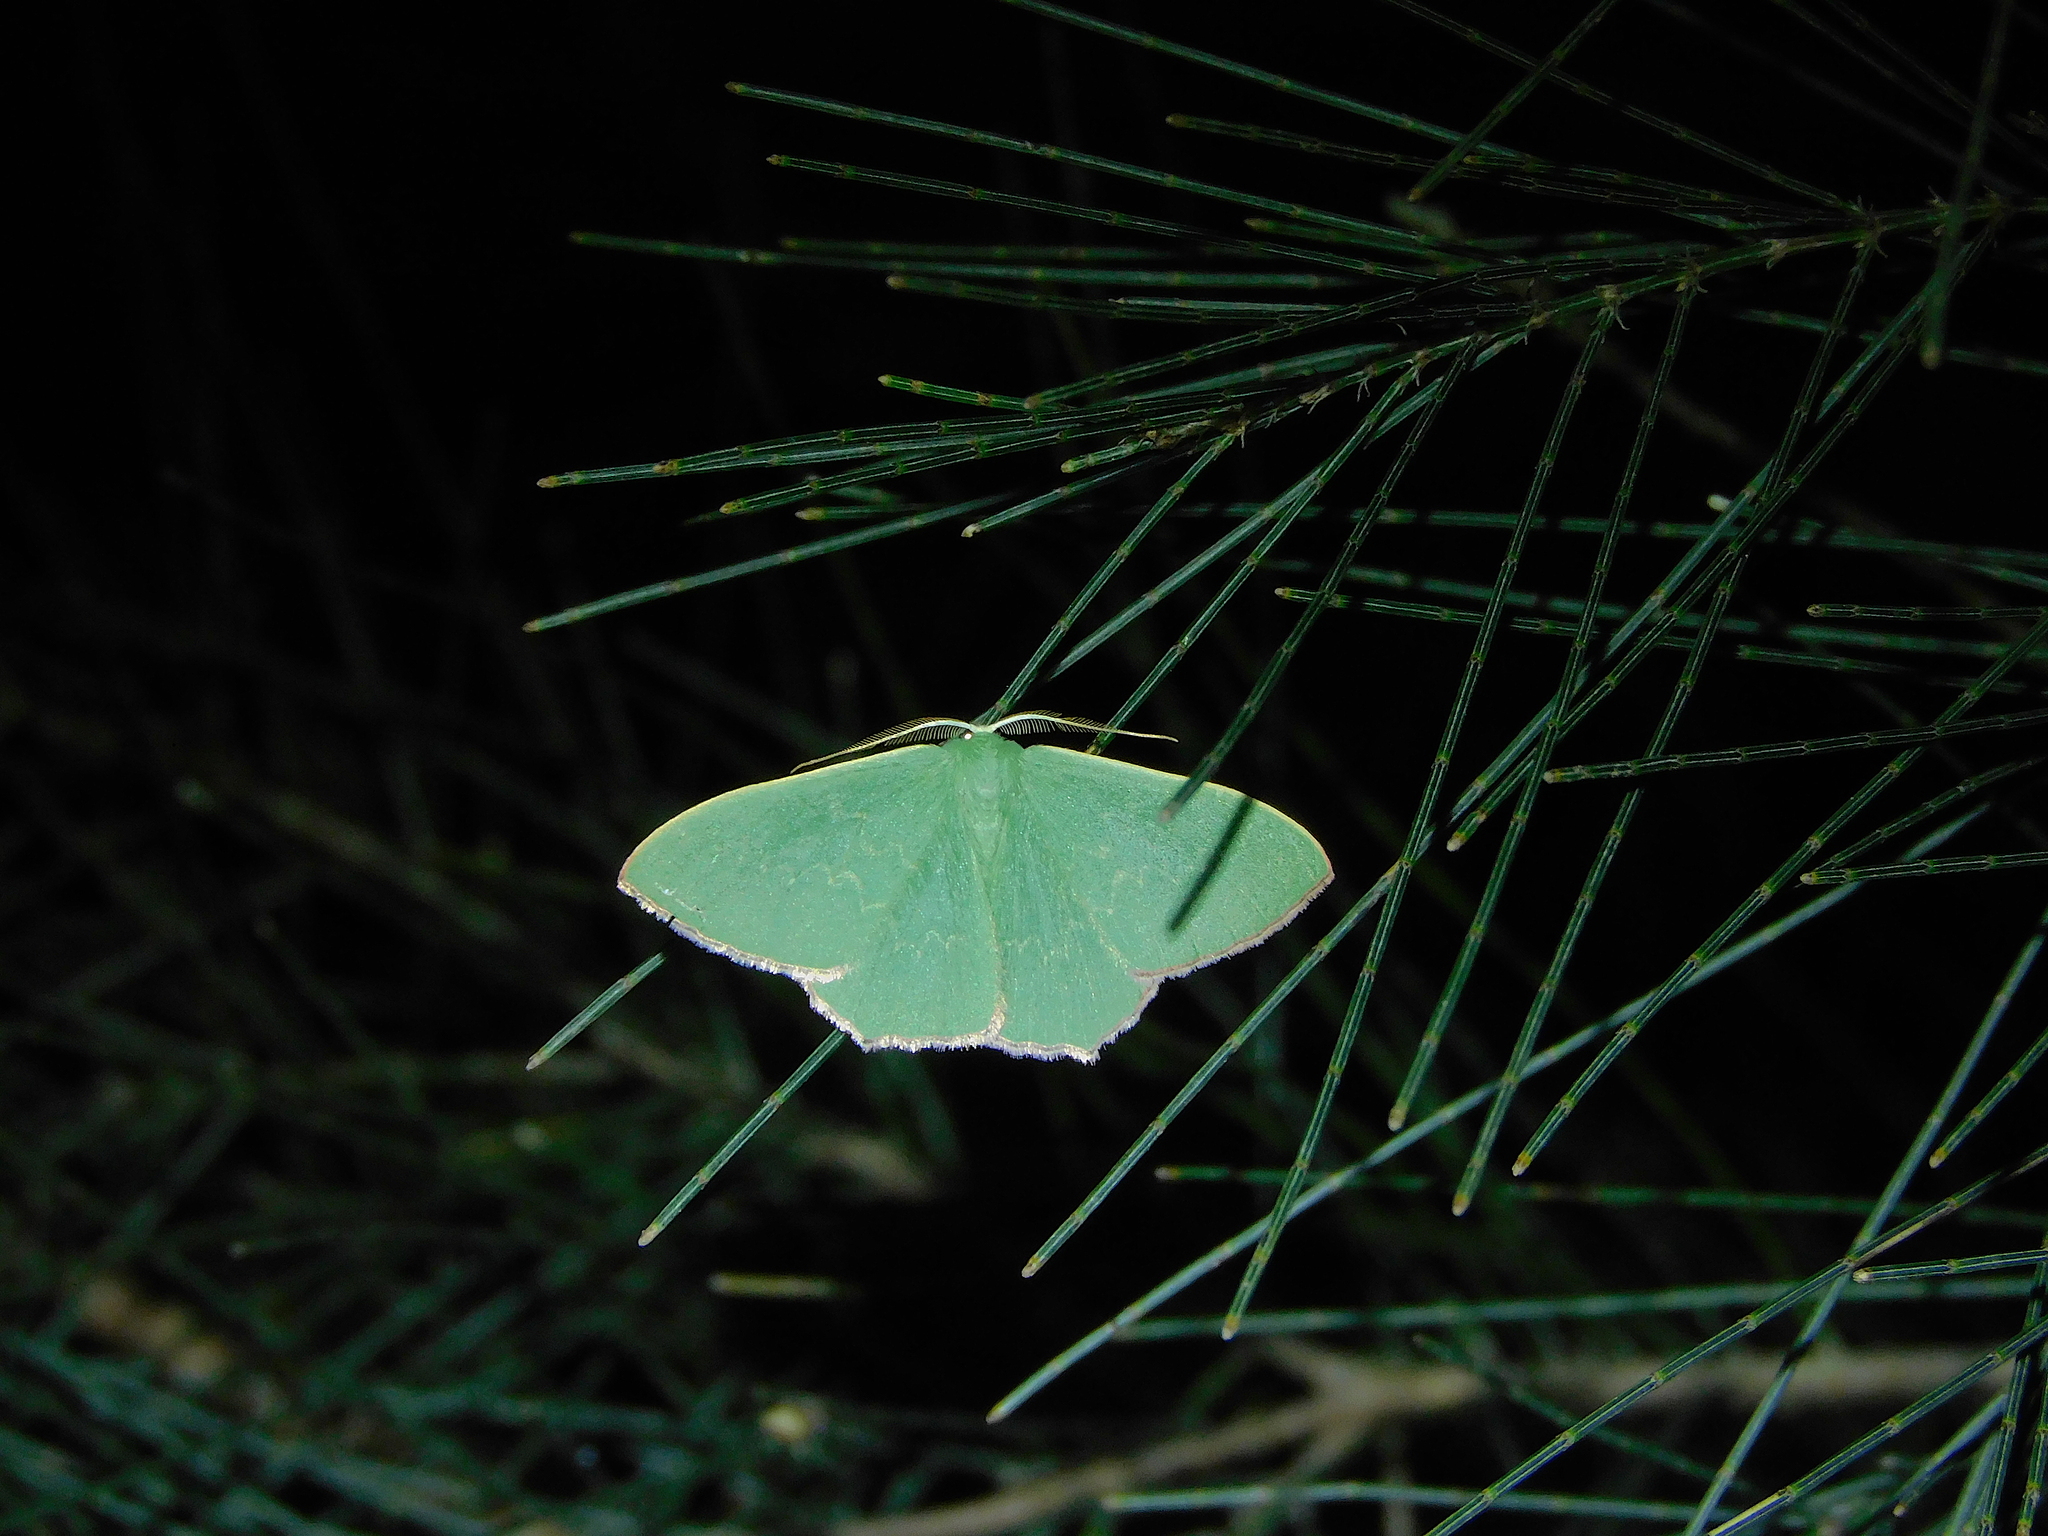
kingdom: Animalia
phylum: Arthropoda
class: Insecta
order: Lepidoptera
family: Geometridae
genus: Prasinocyma
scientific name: Prasinocyma semicrocea
